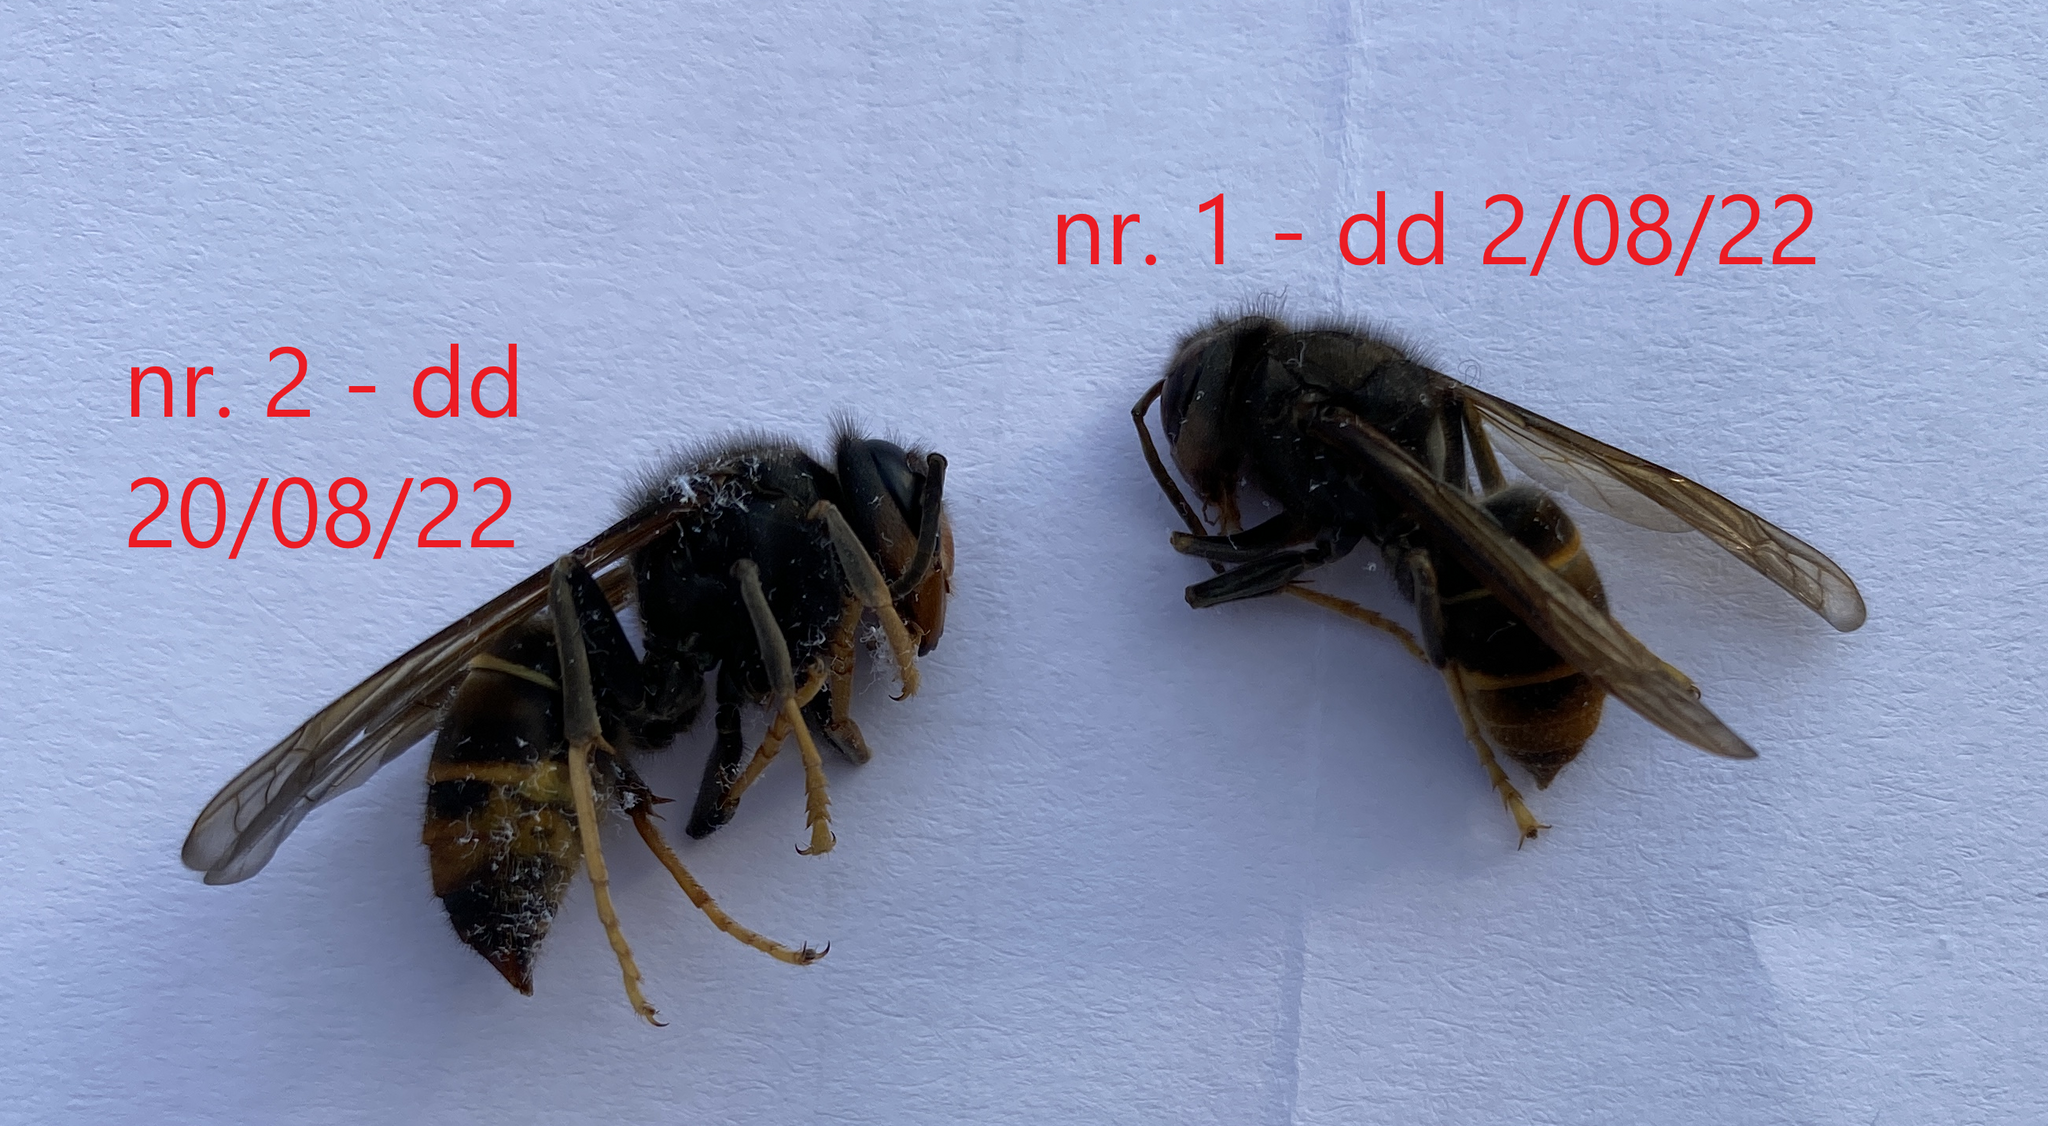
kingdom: Animalia
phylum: Arthropoda
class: Insecta
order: Hymenoptera
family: Vespidae
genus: Vespa
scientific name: Vespa velutina
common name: Asian hornet
